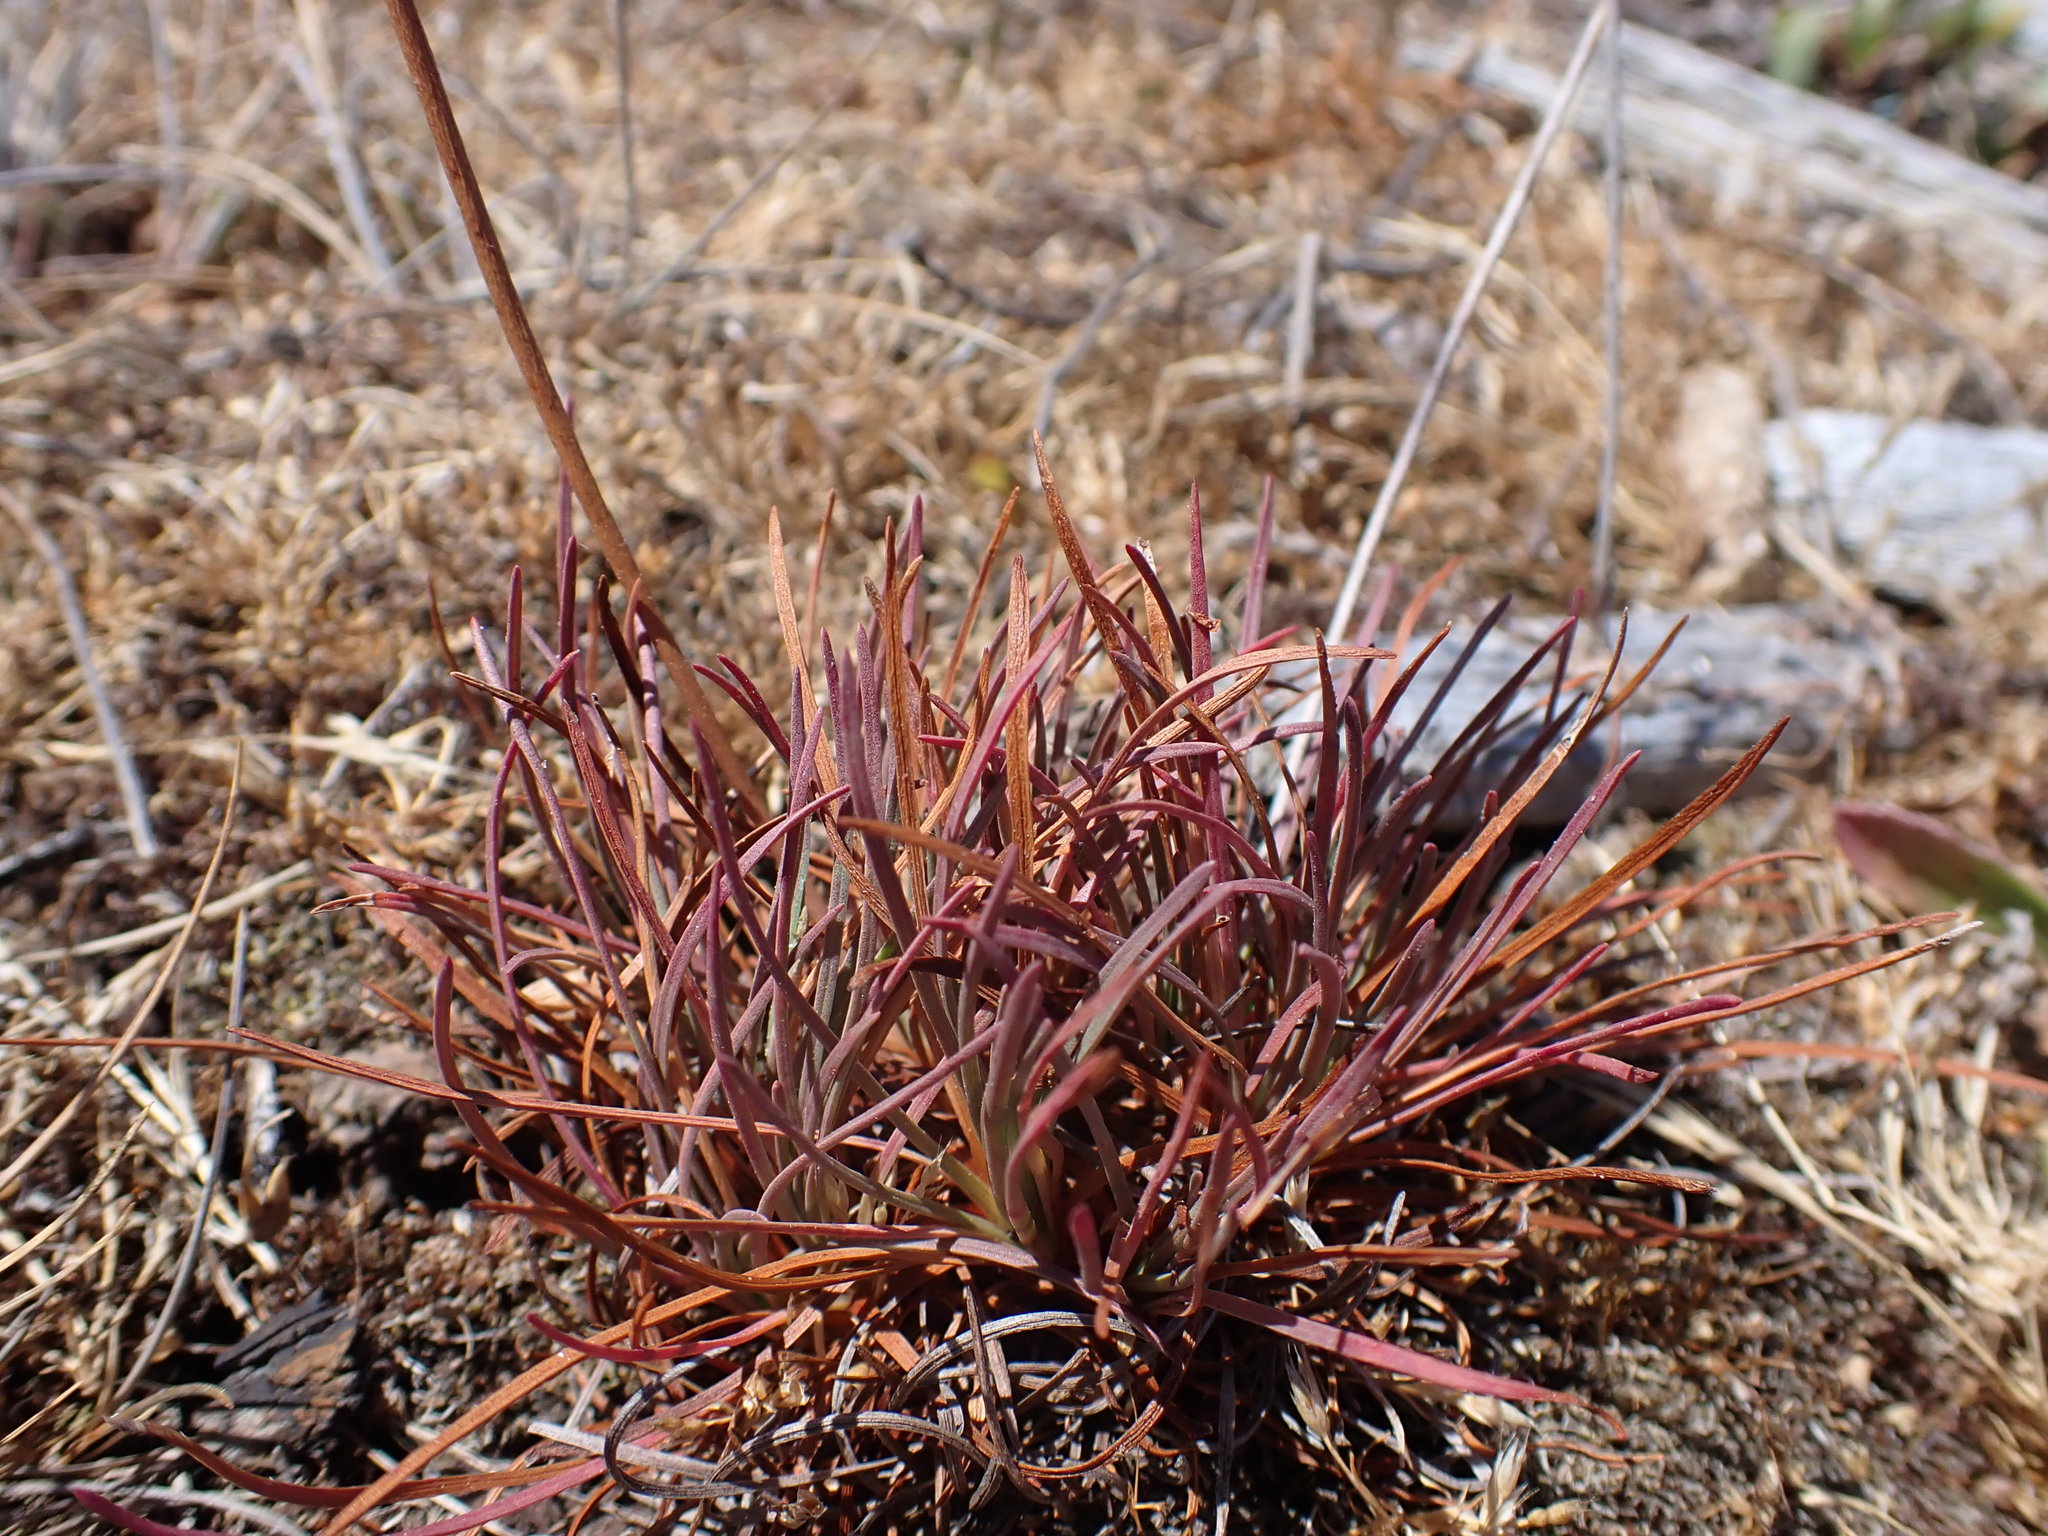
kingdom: Plantae
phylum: Tracheophyta
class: Magnoliopsida
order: Caryophyllales
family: Plumbaginaceae
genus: Armeria
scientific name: Armeria maritima
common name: Thrift
